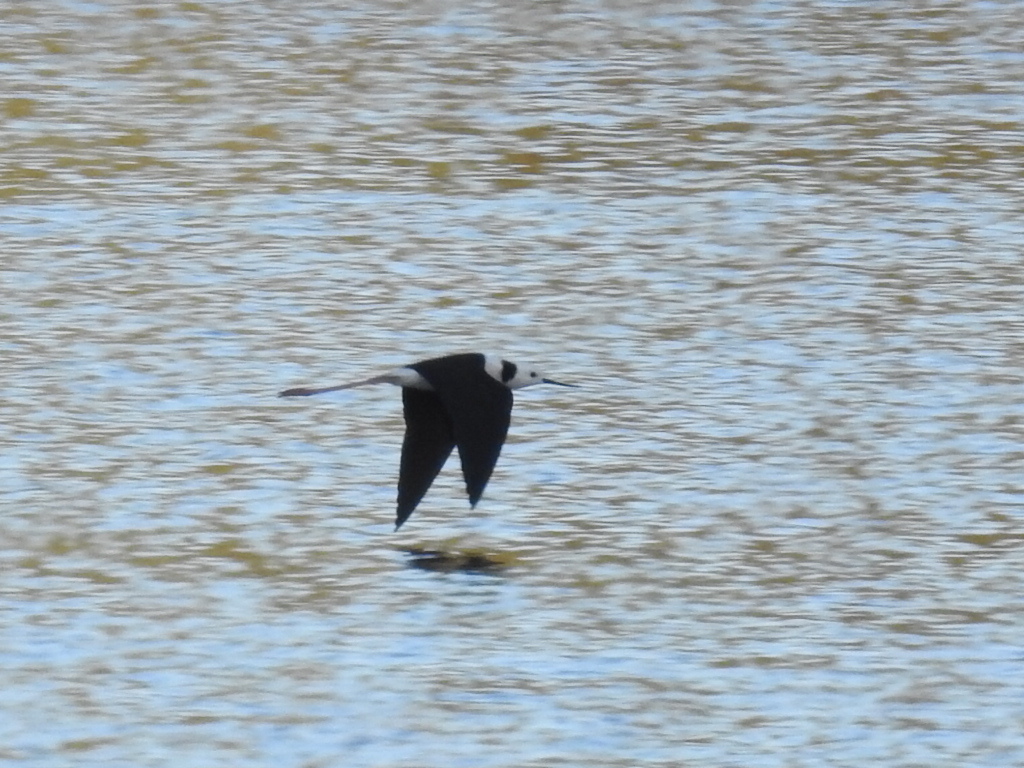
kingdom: Animalia
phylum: Chordata
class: Aves
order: Charadriiformes
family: Recurvirostridae
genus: Himantopus
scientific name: Himantopus leucocephalus
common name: White-headed stilt
